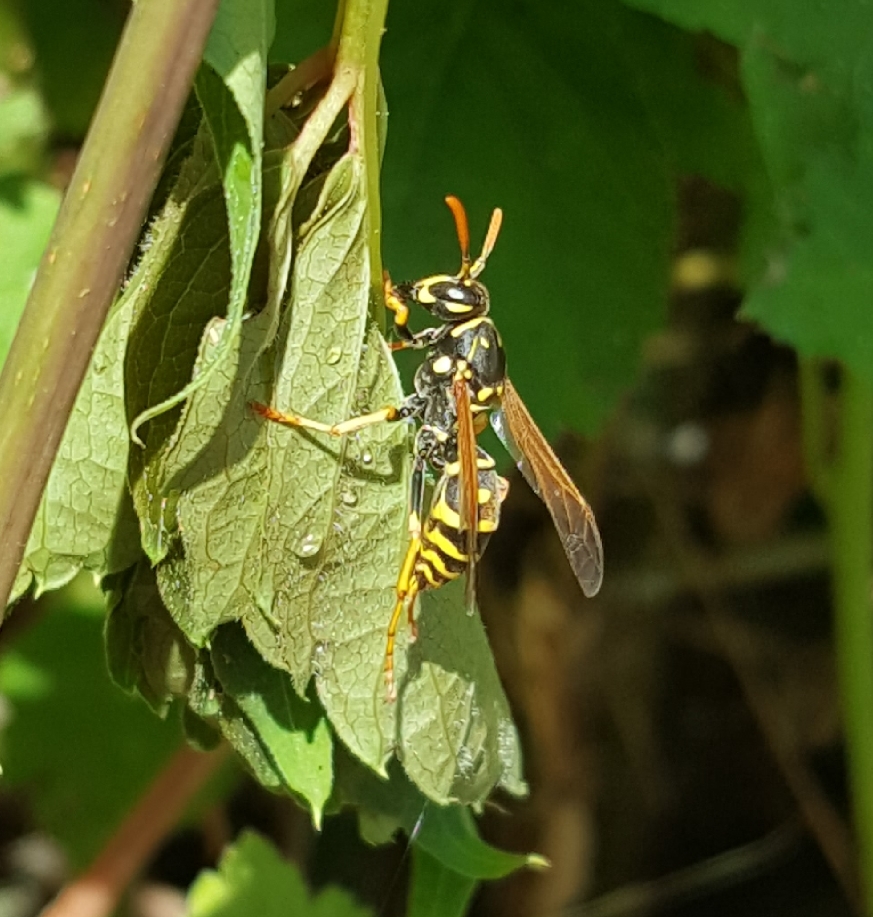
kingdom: Animalia
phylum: Arthropoda
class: Insecta
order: Hymenoptera
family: Eumenidae
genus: Polistes
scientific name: Polistes dominula
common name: Paper wasp
